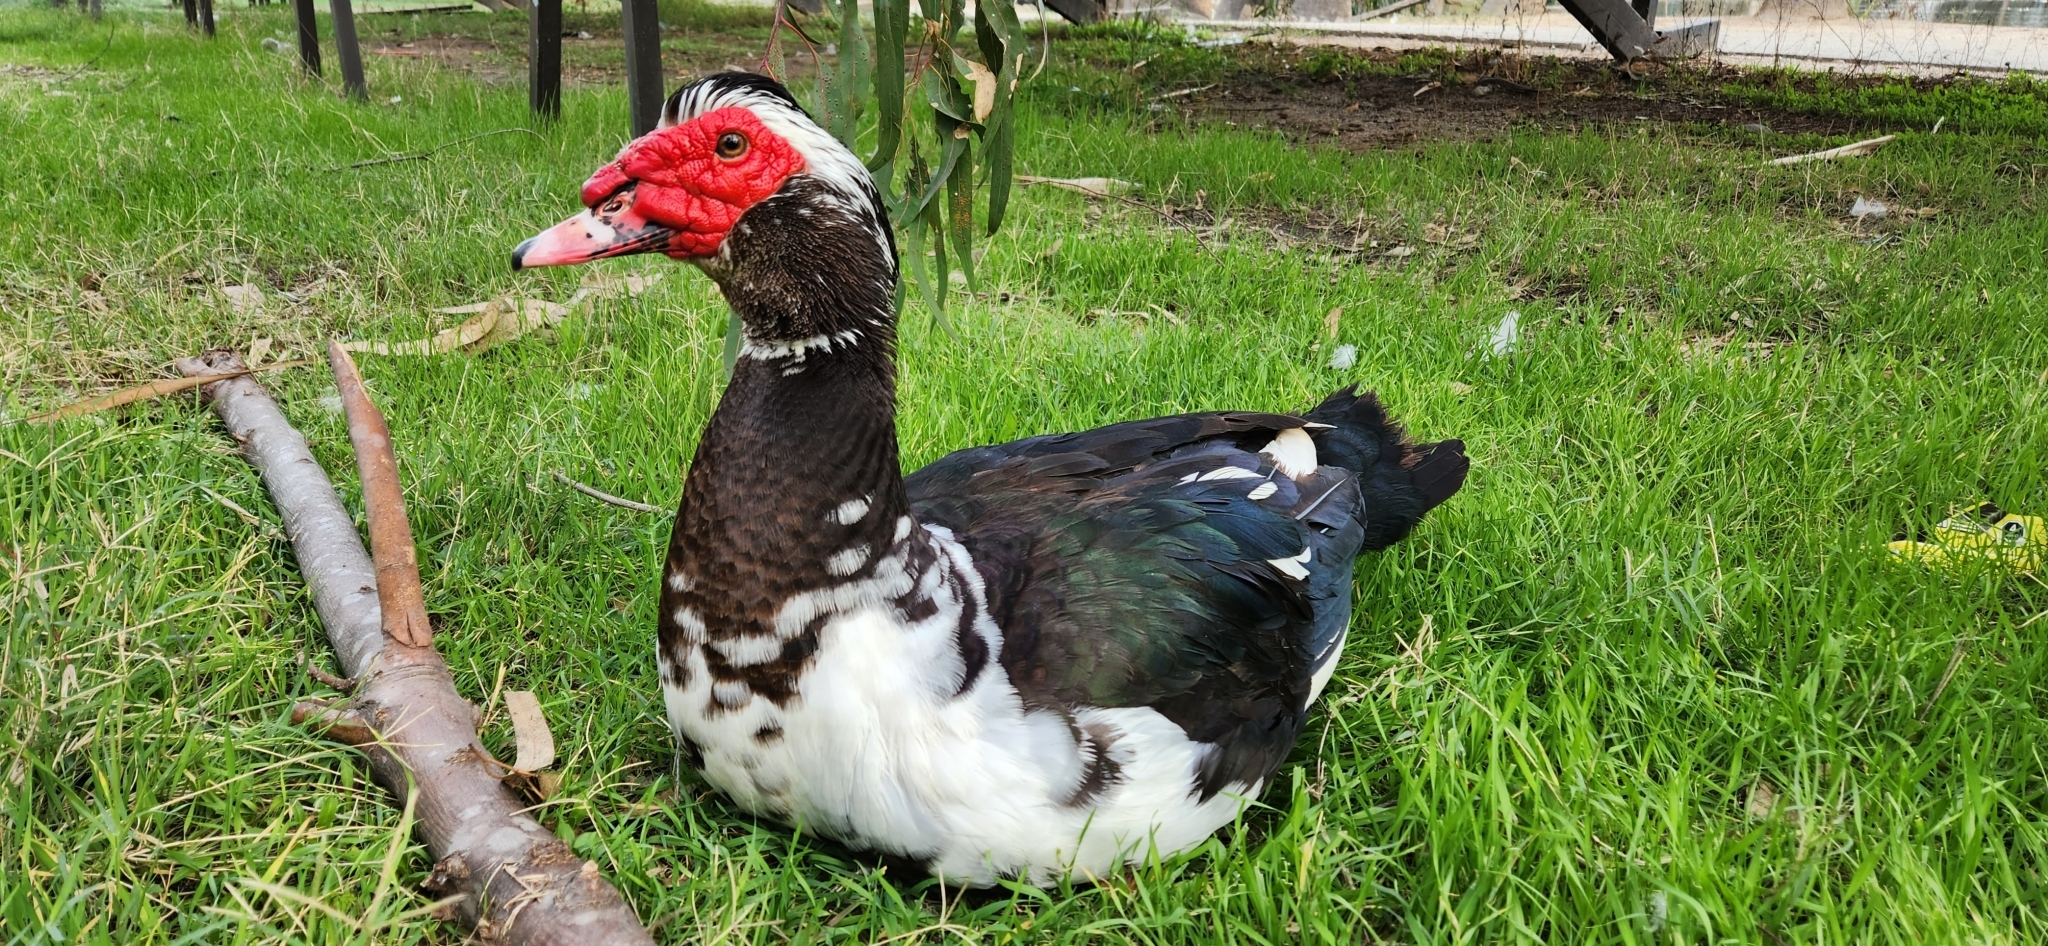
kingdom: Animalia
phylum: Chordata
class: Aves
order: Anseriformes
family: Anatidae
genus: Cairina
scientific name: Cairina moschata
